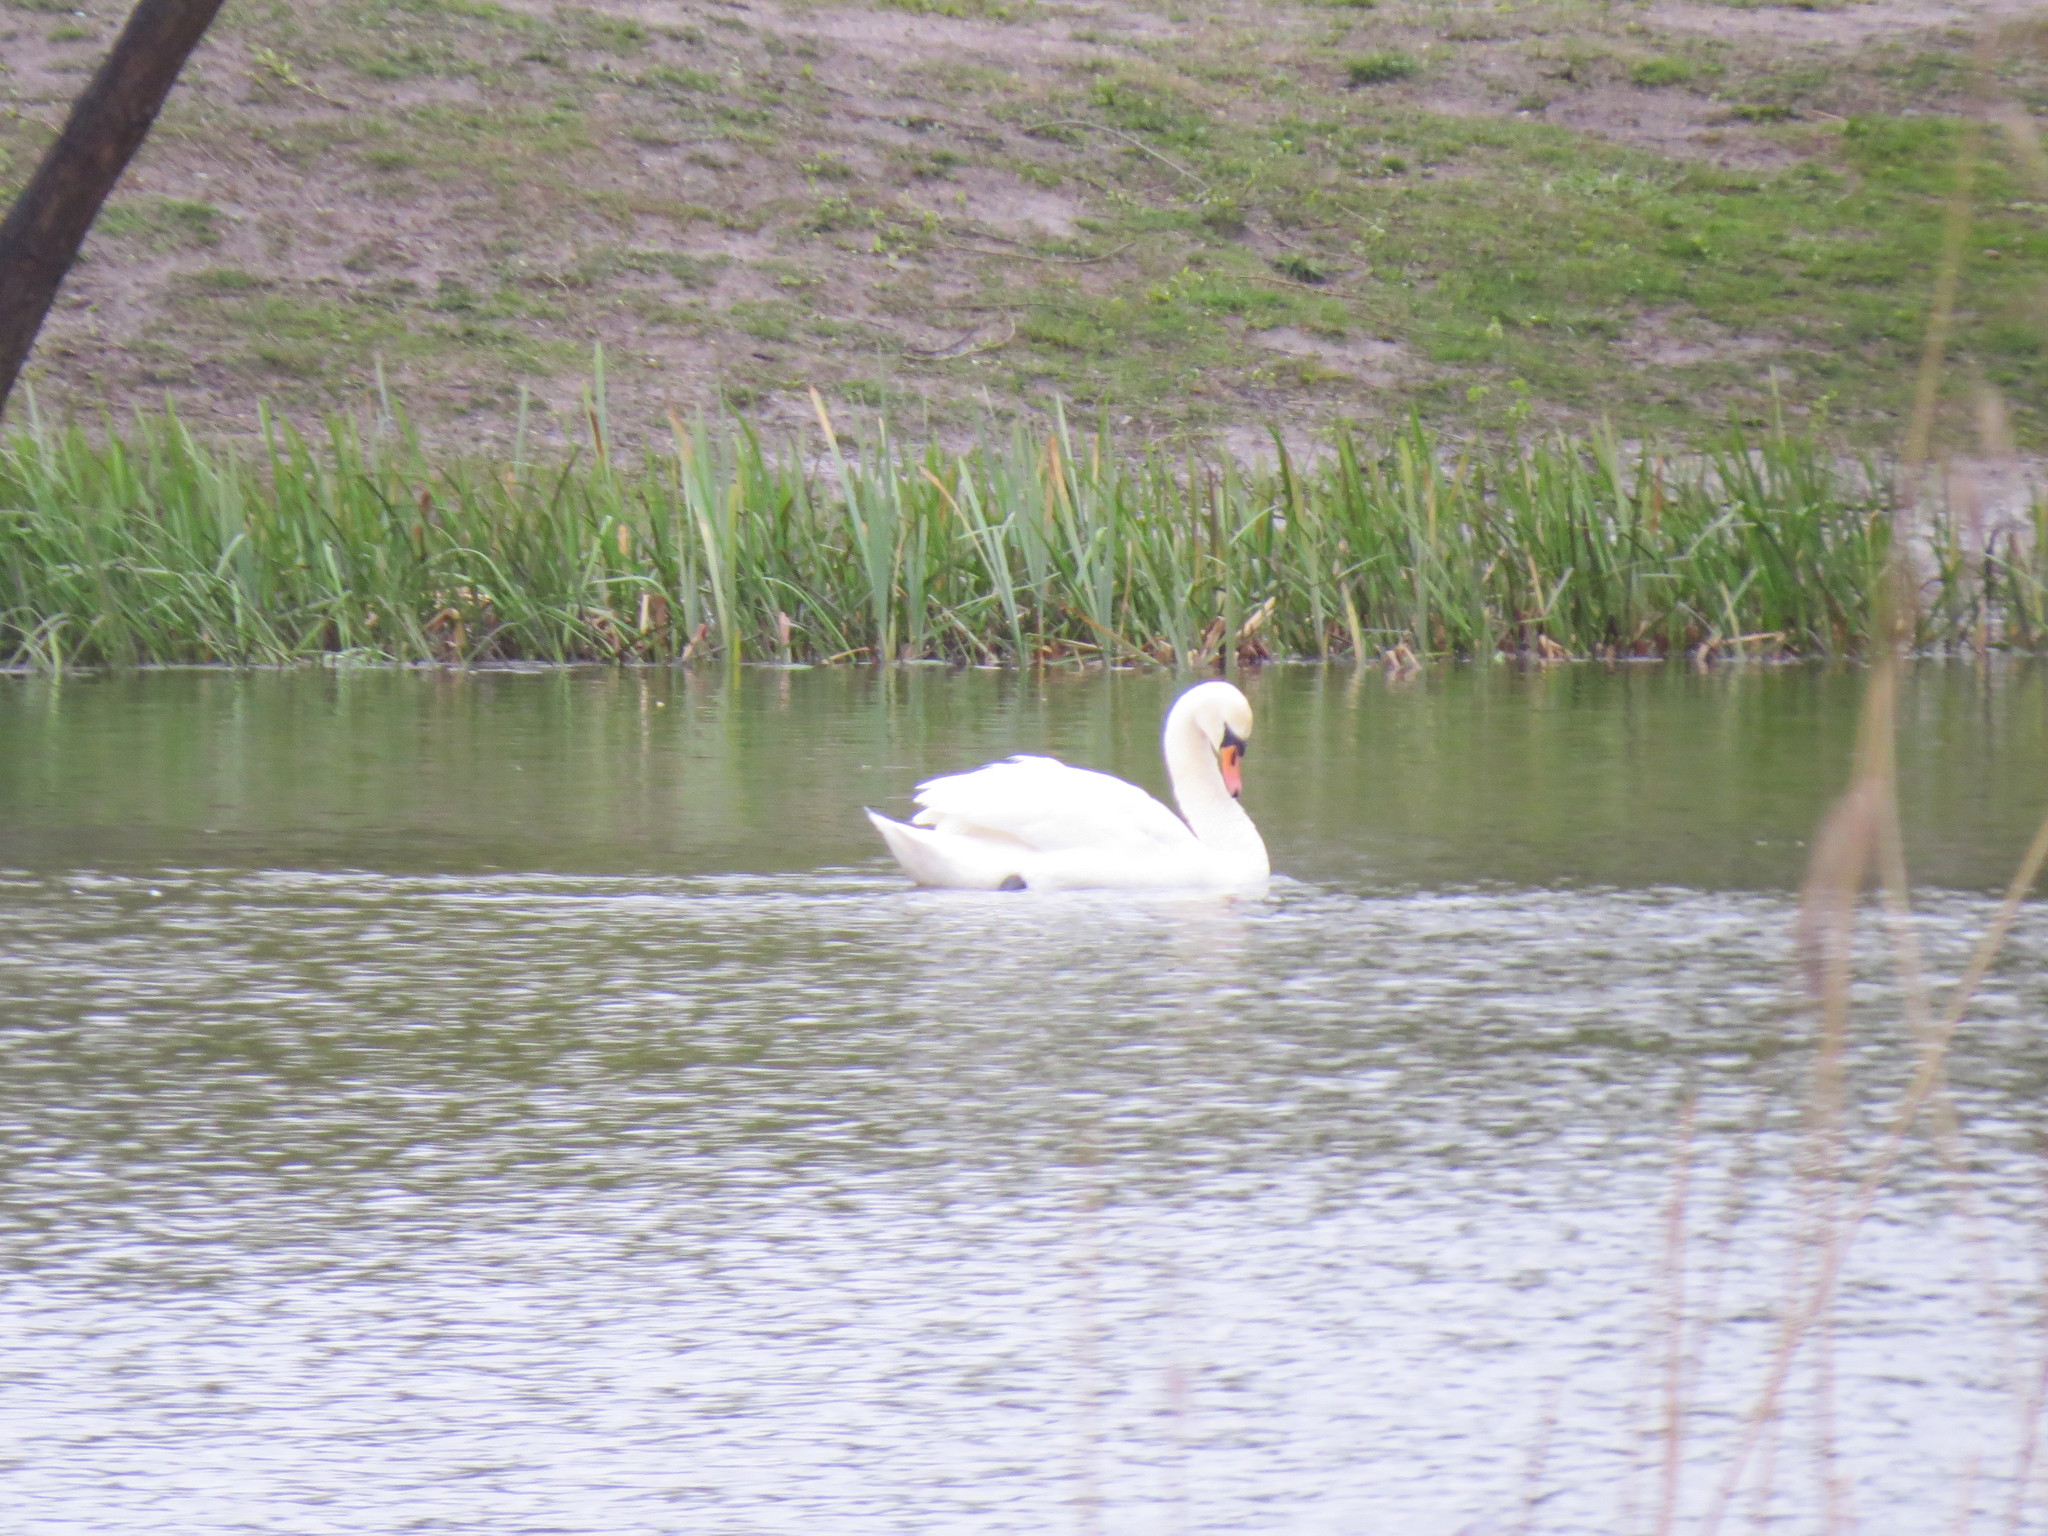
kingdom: Animalia
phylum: Chordata
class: Aves
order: Anseriformes
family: Anatidae
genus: Cygnus
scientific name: Cygnus olor
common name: Mute swan
